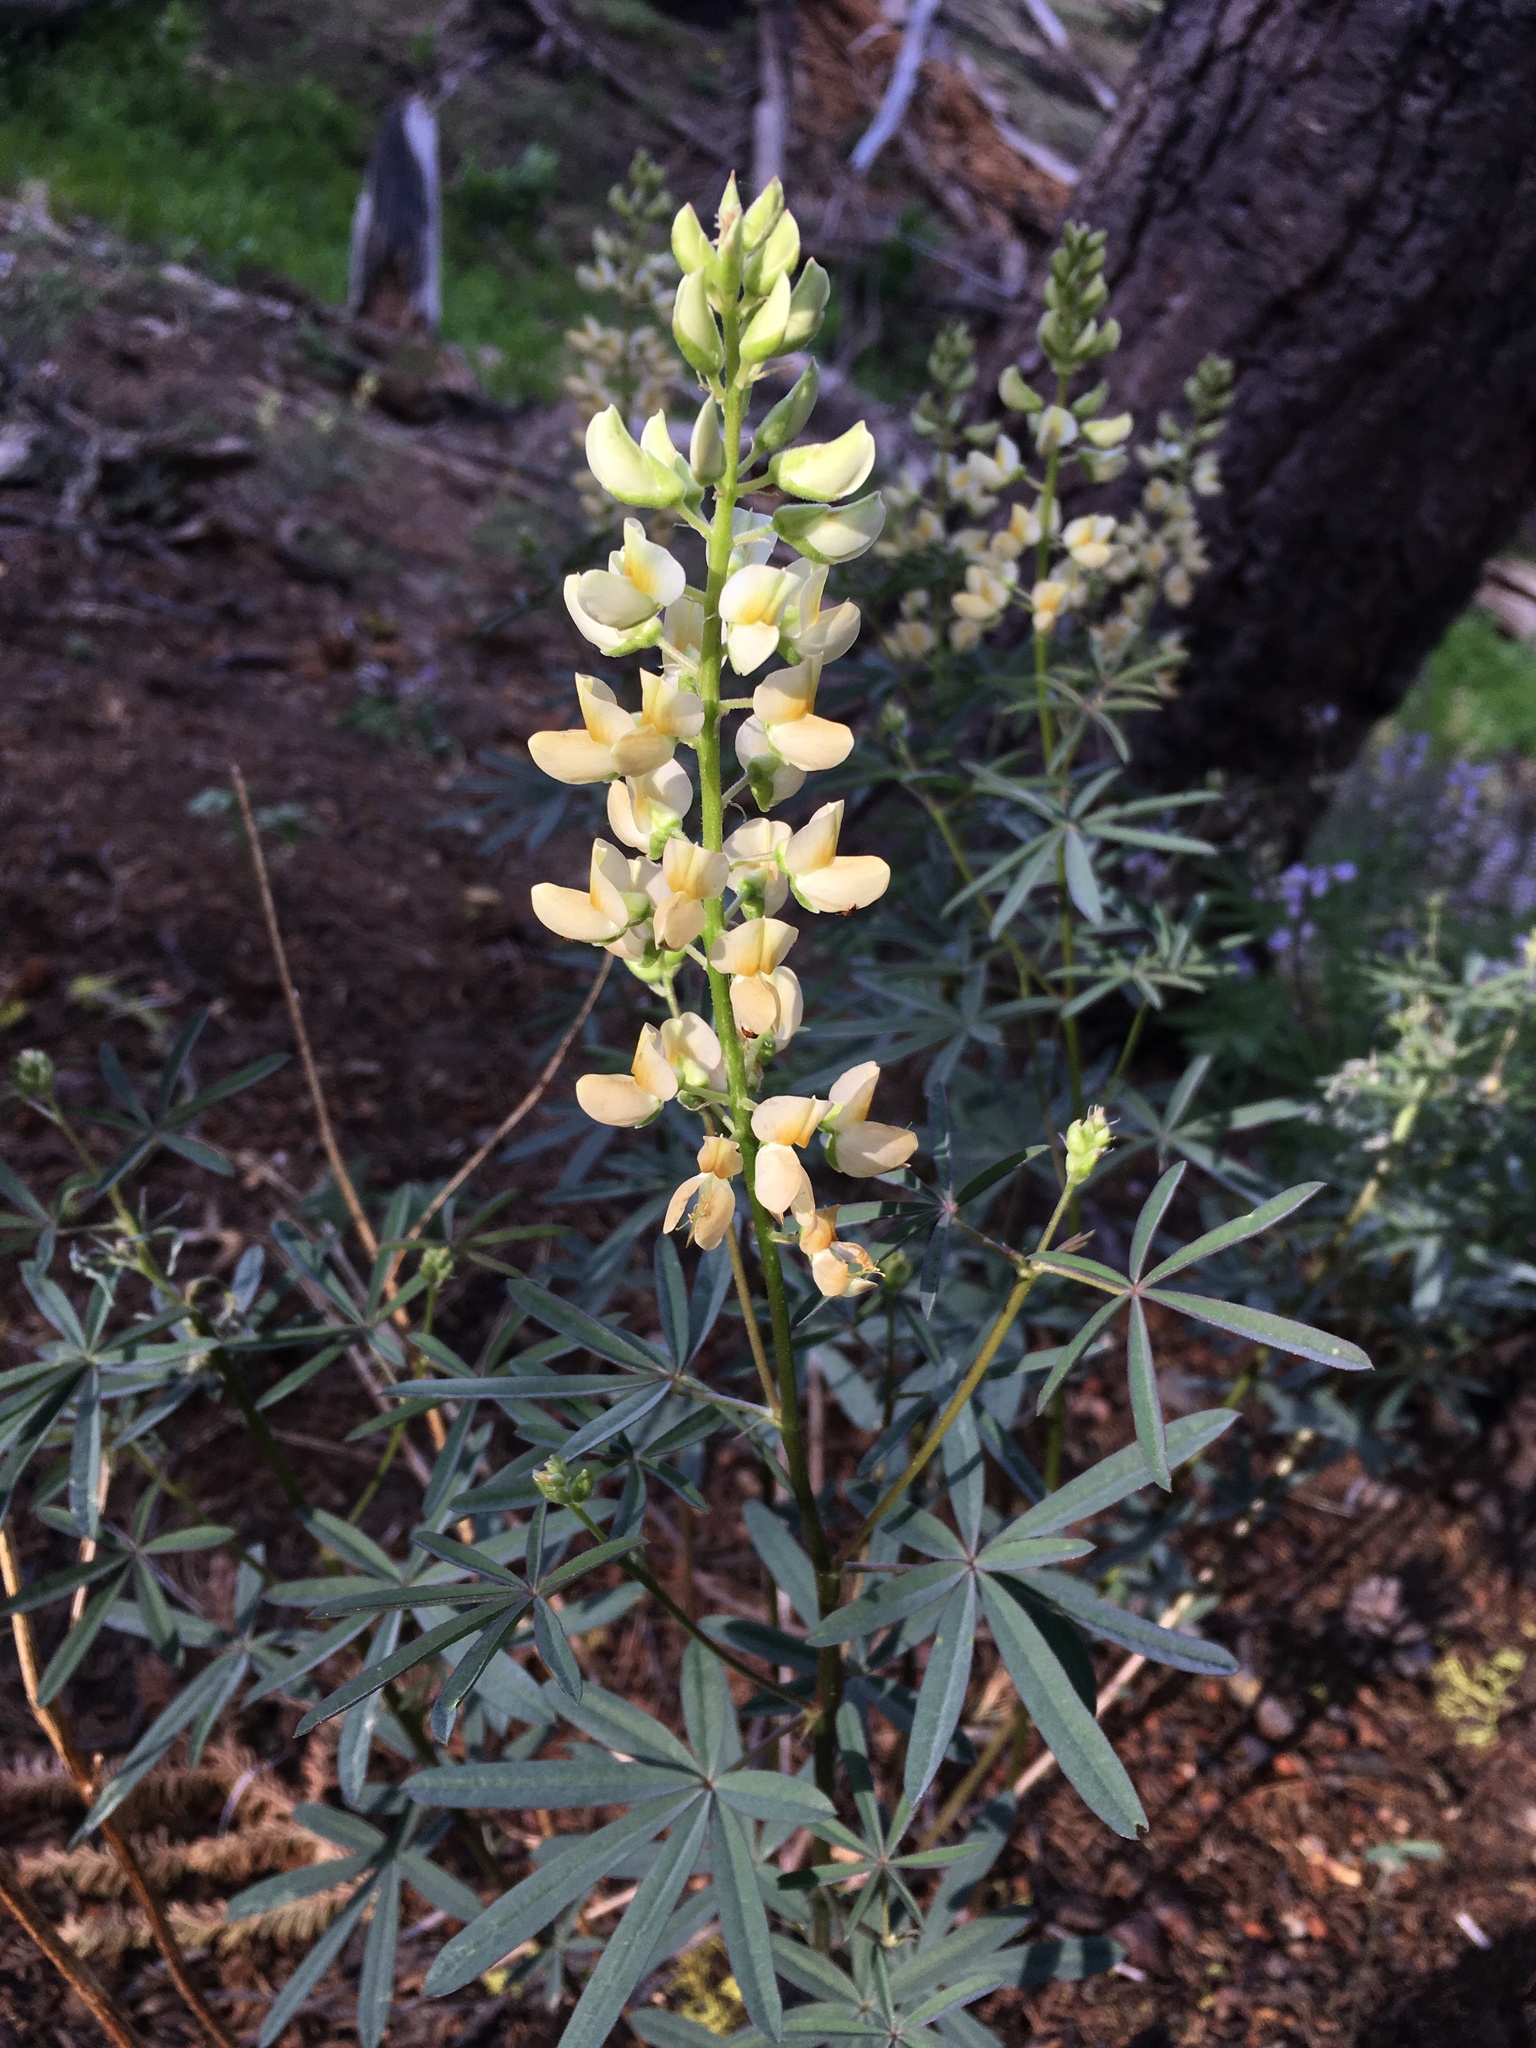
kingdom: Plantae
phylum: Tracheophyta
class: Magnoliopsida
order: Fabales
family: Fabaceae
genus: Lupinus
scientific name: Lupinus angustiflorus
